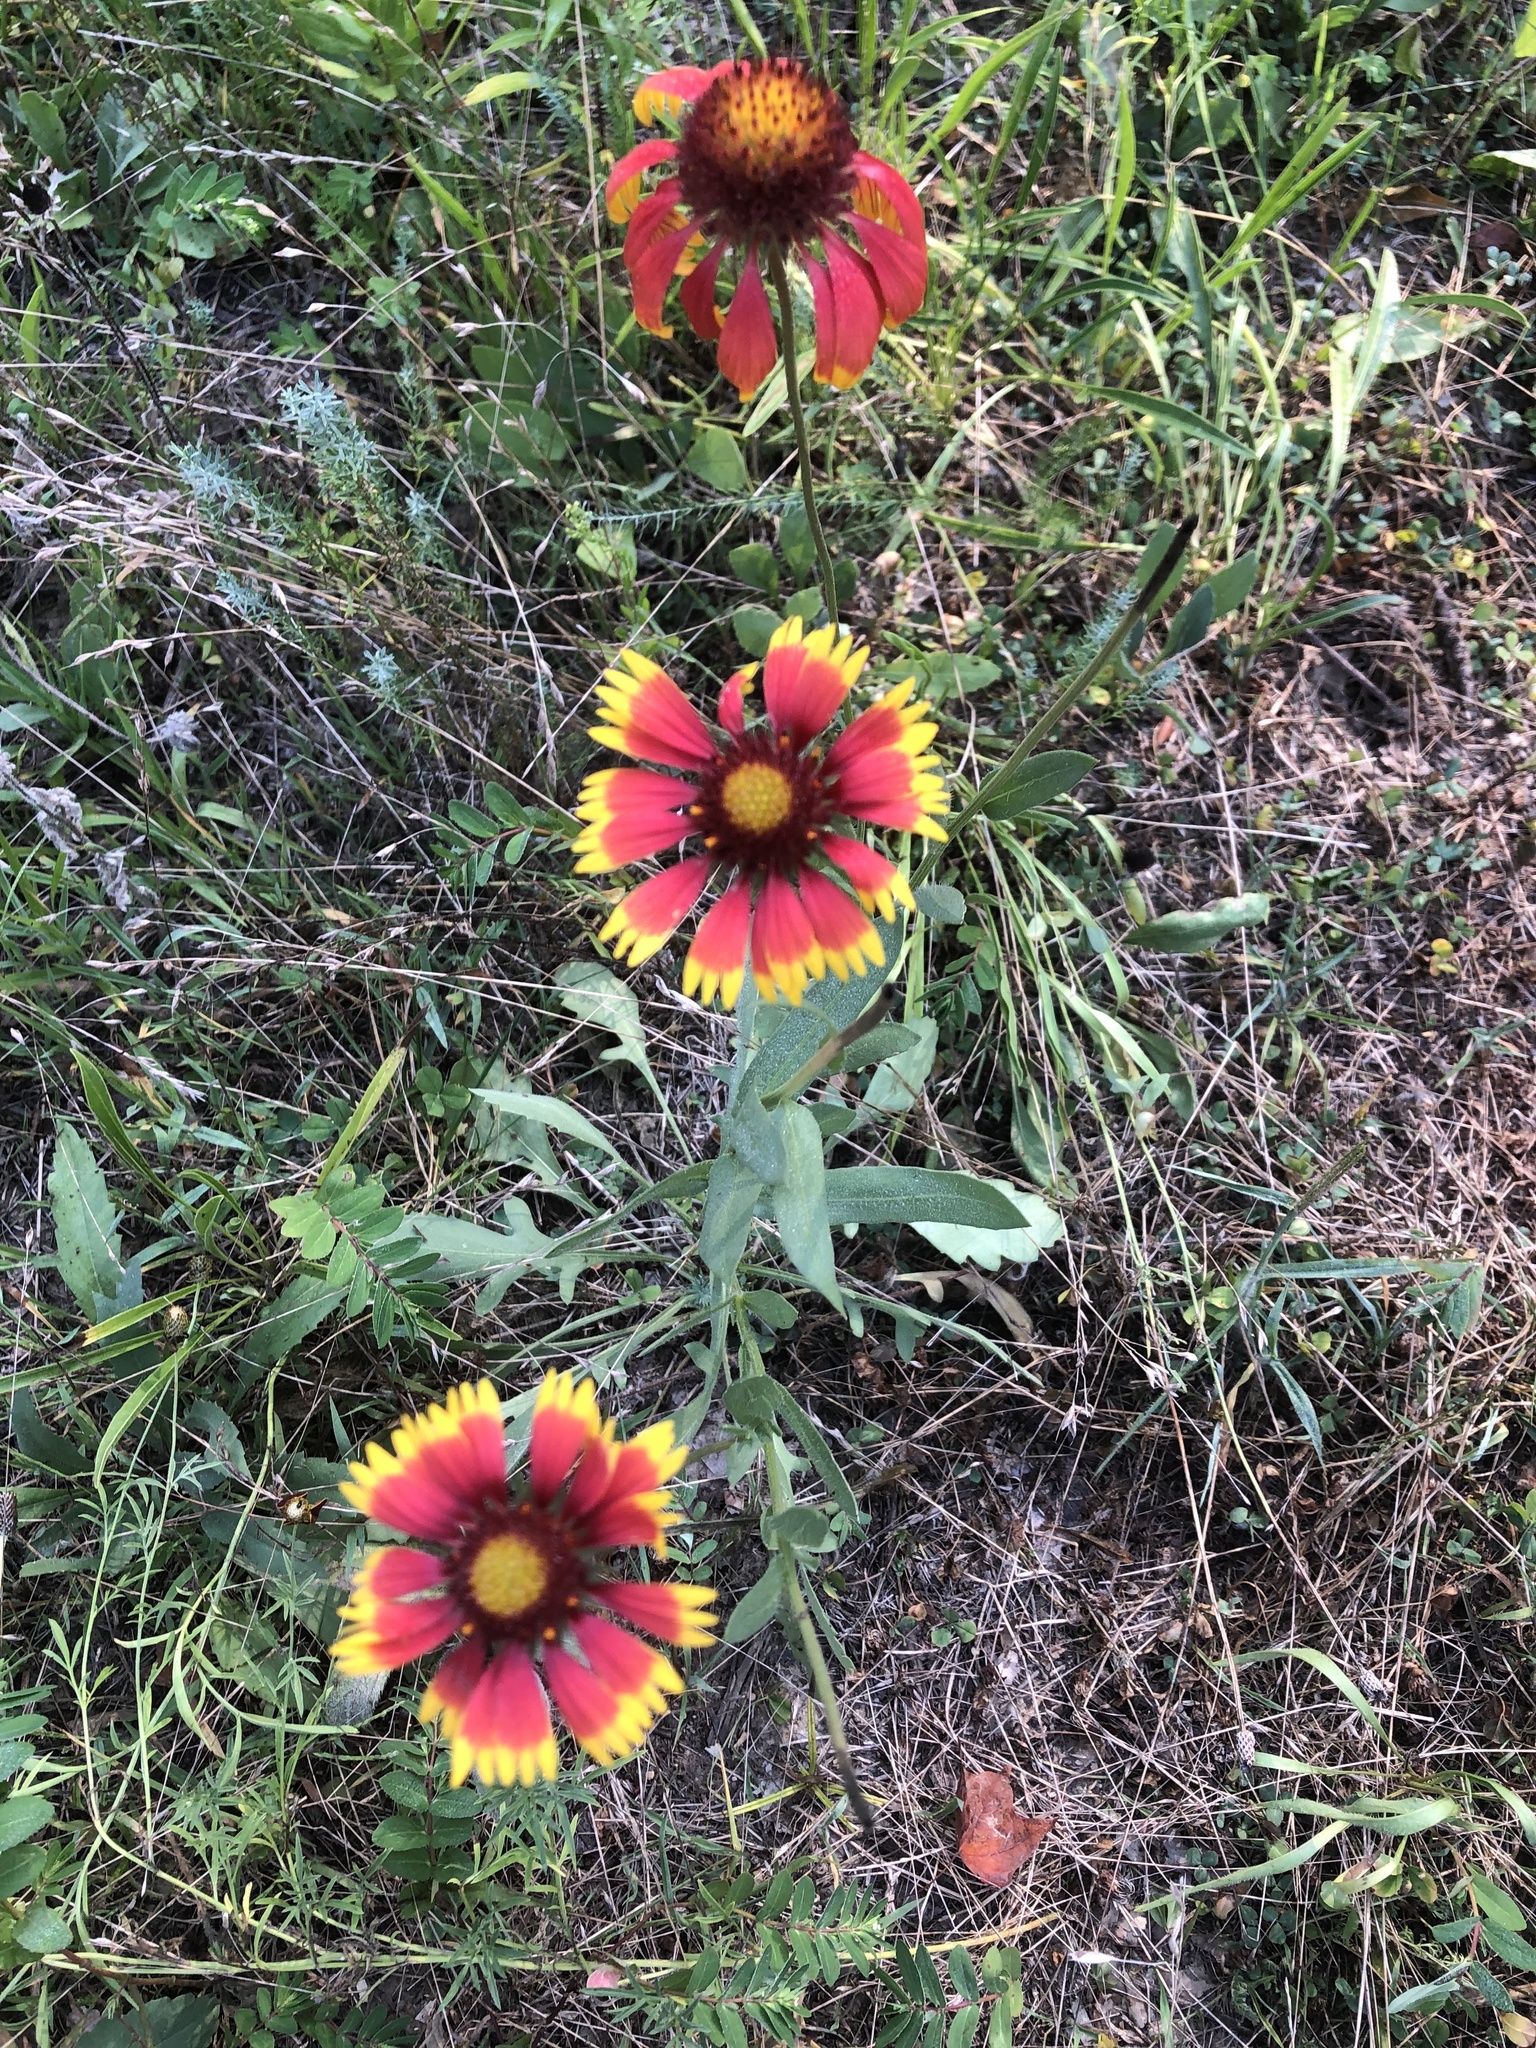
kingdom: Plantae
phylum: Tracheophyta
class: Magnoliopsida
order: Asterales
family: Asteraceae
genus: Gaillardia
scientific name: Gaillardia pulchella
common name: Firewheel
